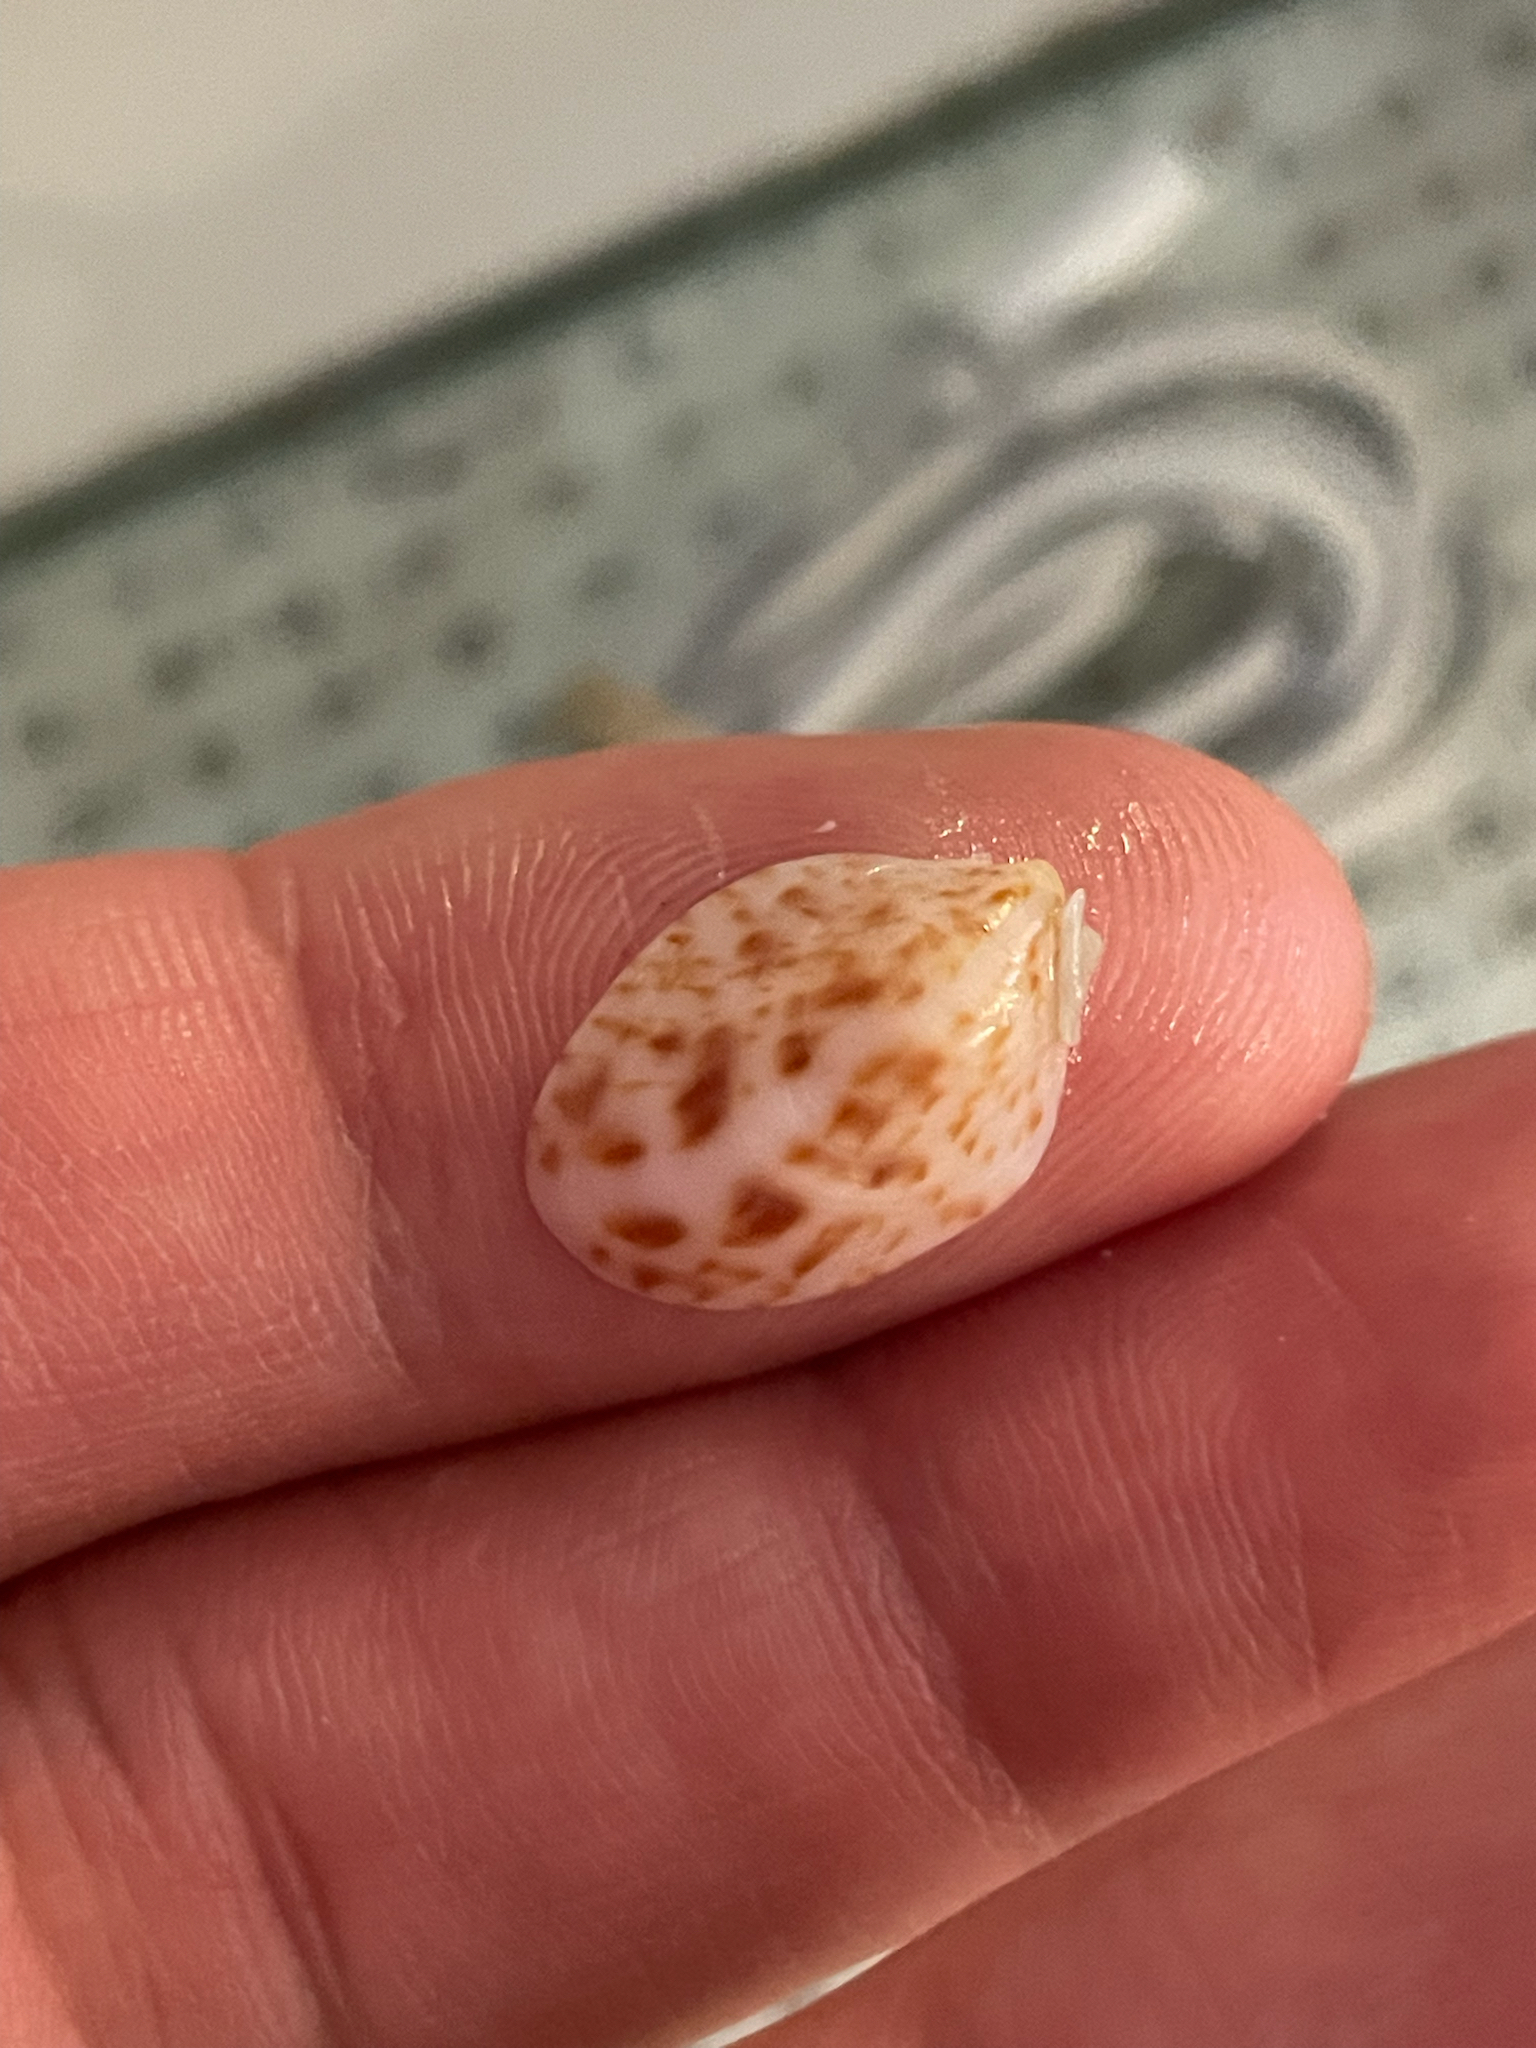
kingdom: Animalia
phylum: Mollusca
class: Gastropoda
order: Littorinimorpha
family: Calyptraeidae
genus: Crepidula
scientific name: Crepidula maculosa
